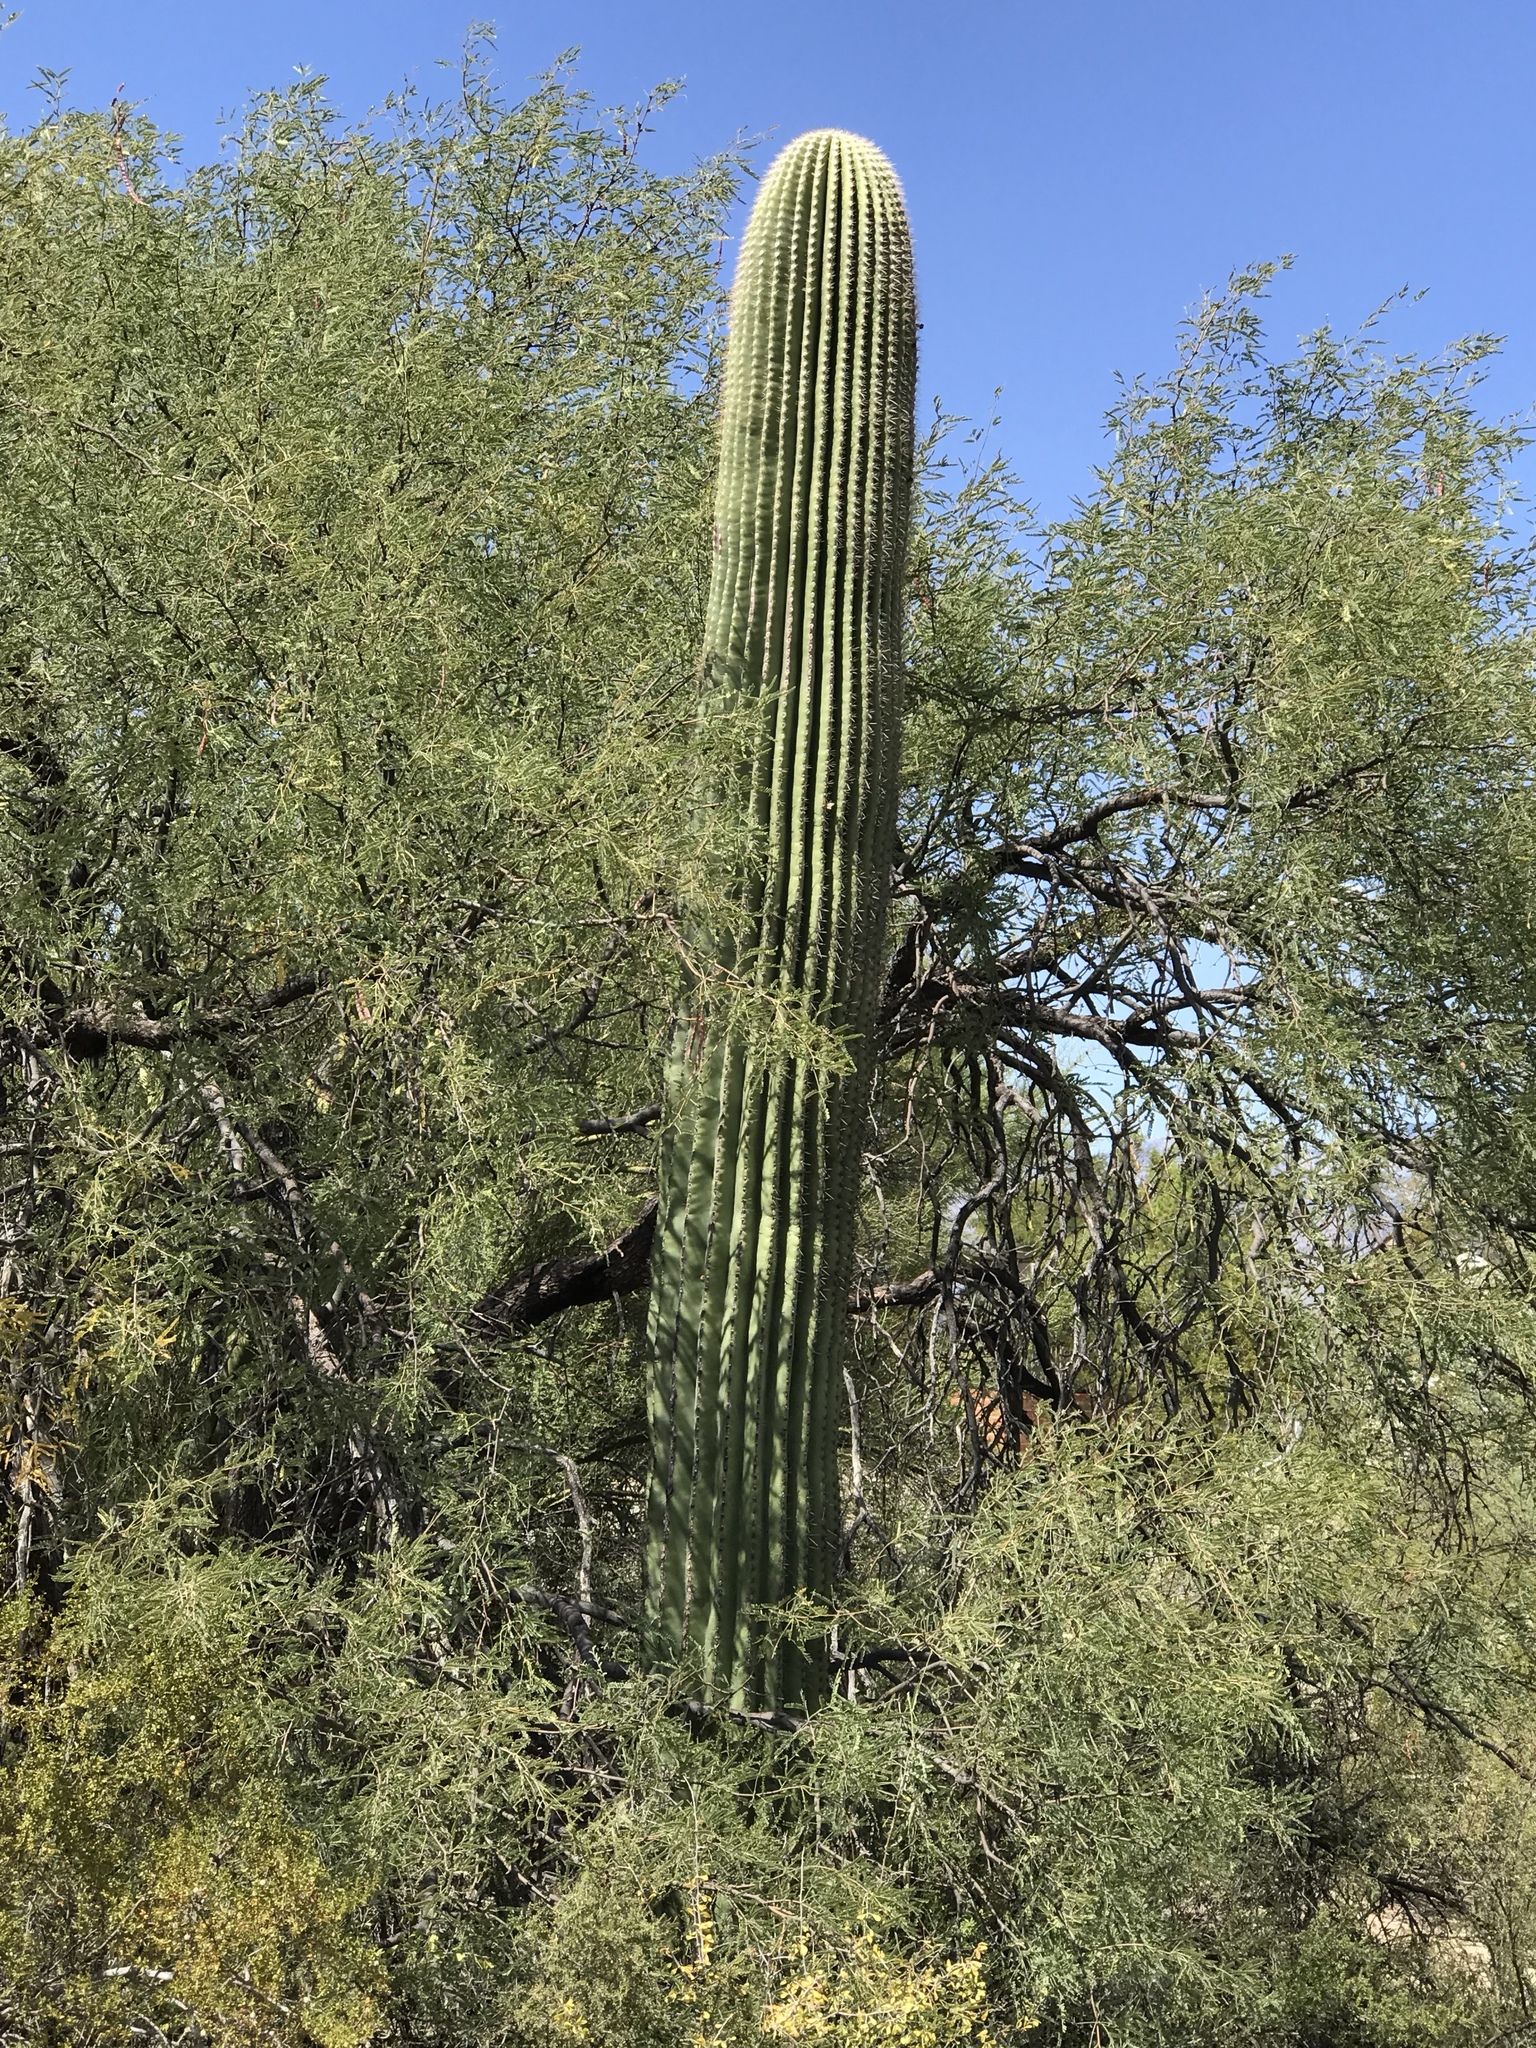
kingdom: Plantae
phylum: Tracheophyta
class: Magnoliopsida
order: Caryophyllales
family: Cactaceae
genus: Carnegiea
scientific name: Carnegiea gigantea
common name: Saguaro
